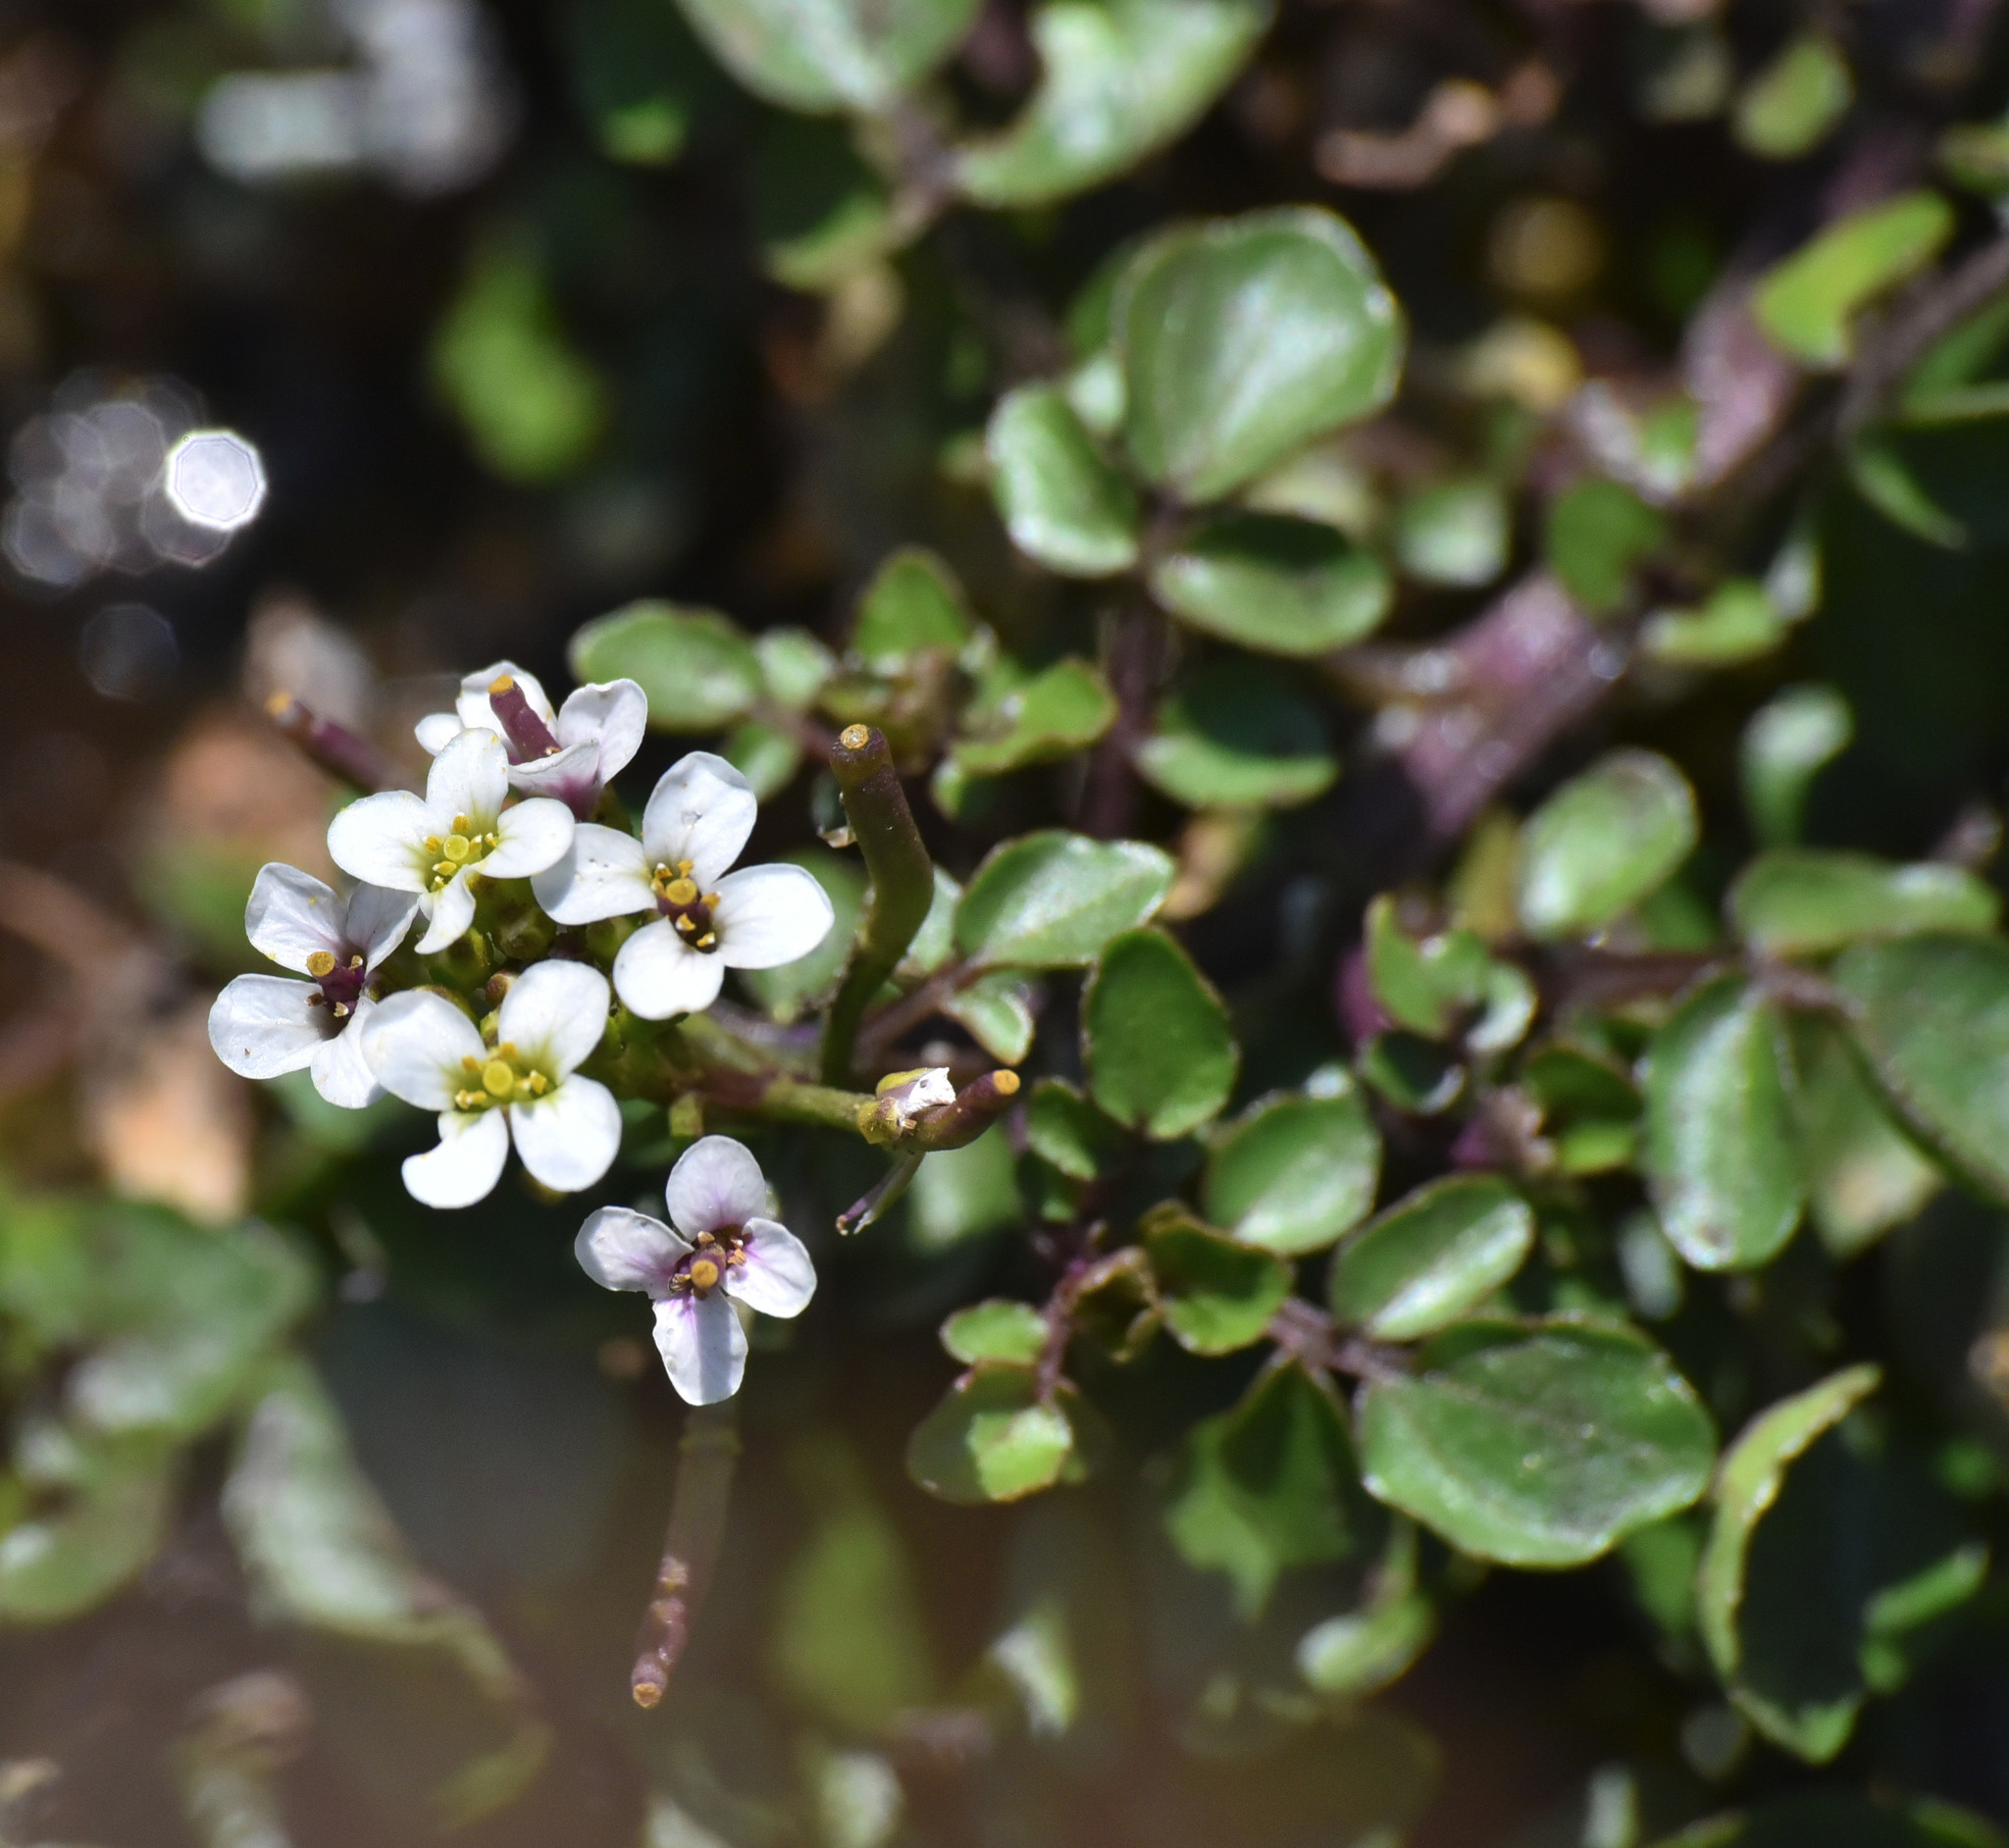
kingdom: Plantae
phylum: Tracheophyta
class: Magnoliopsida
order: Brassicales
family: Brassicaceae
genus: Nasturtium
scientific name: Nasturtium officinale
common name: Watercress
